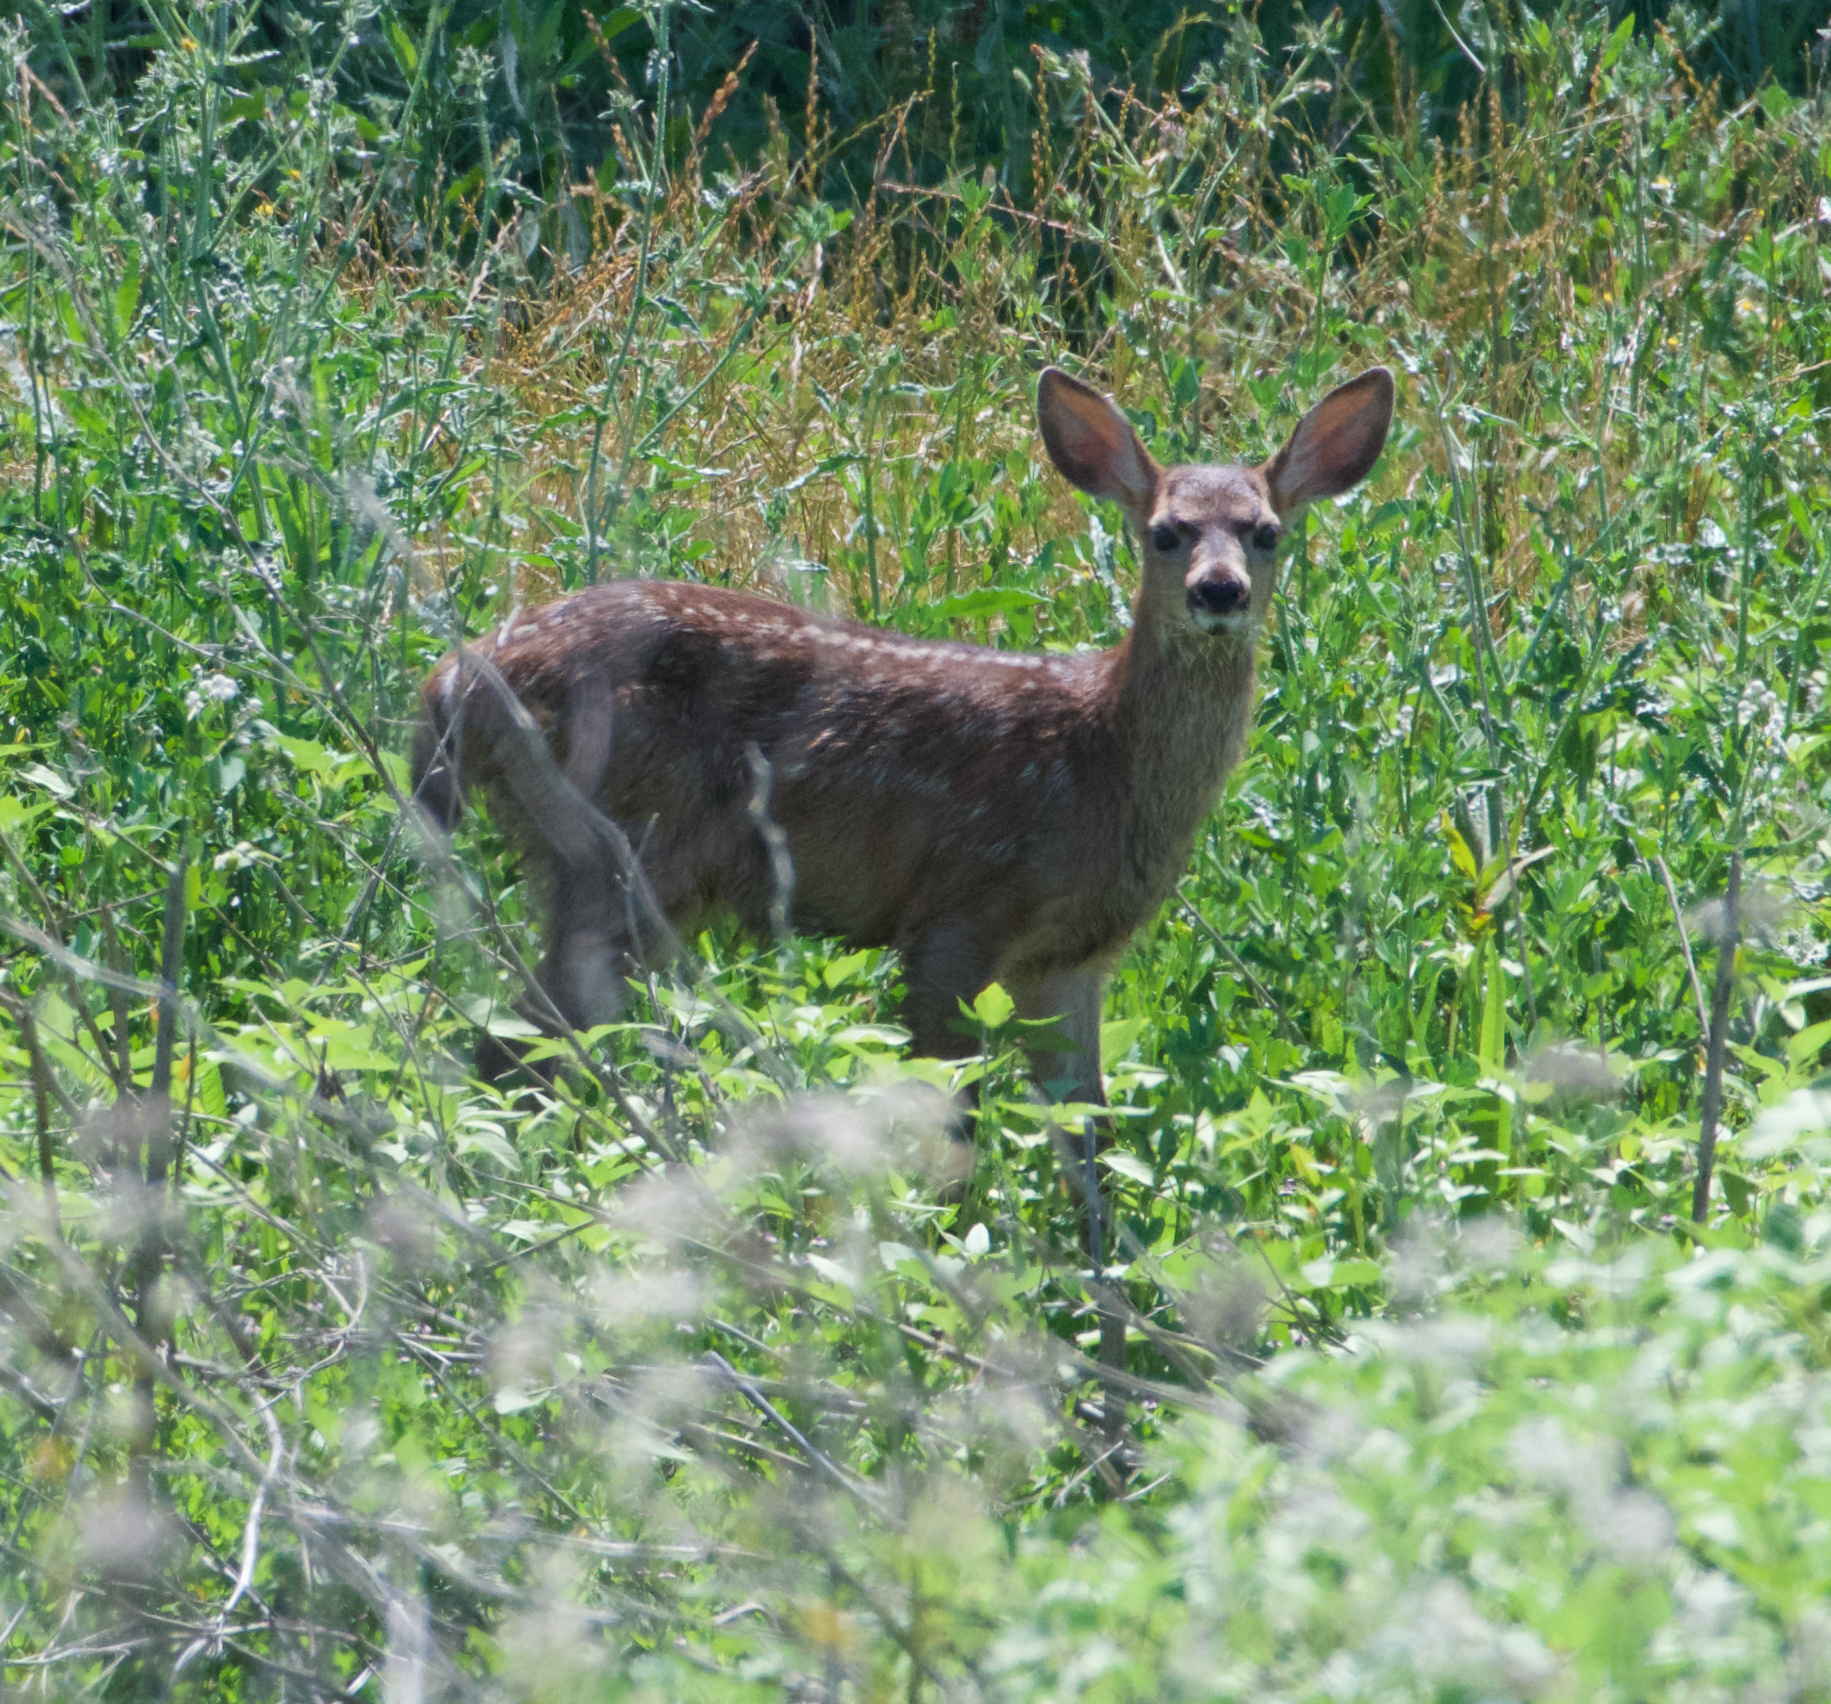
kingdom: Animalia
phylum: Chordata
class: Mammalia
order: Artiodactyla
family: Cervidae
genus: Odocoileus
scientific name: Odocoileus hemionus
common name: Mule deer
